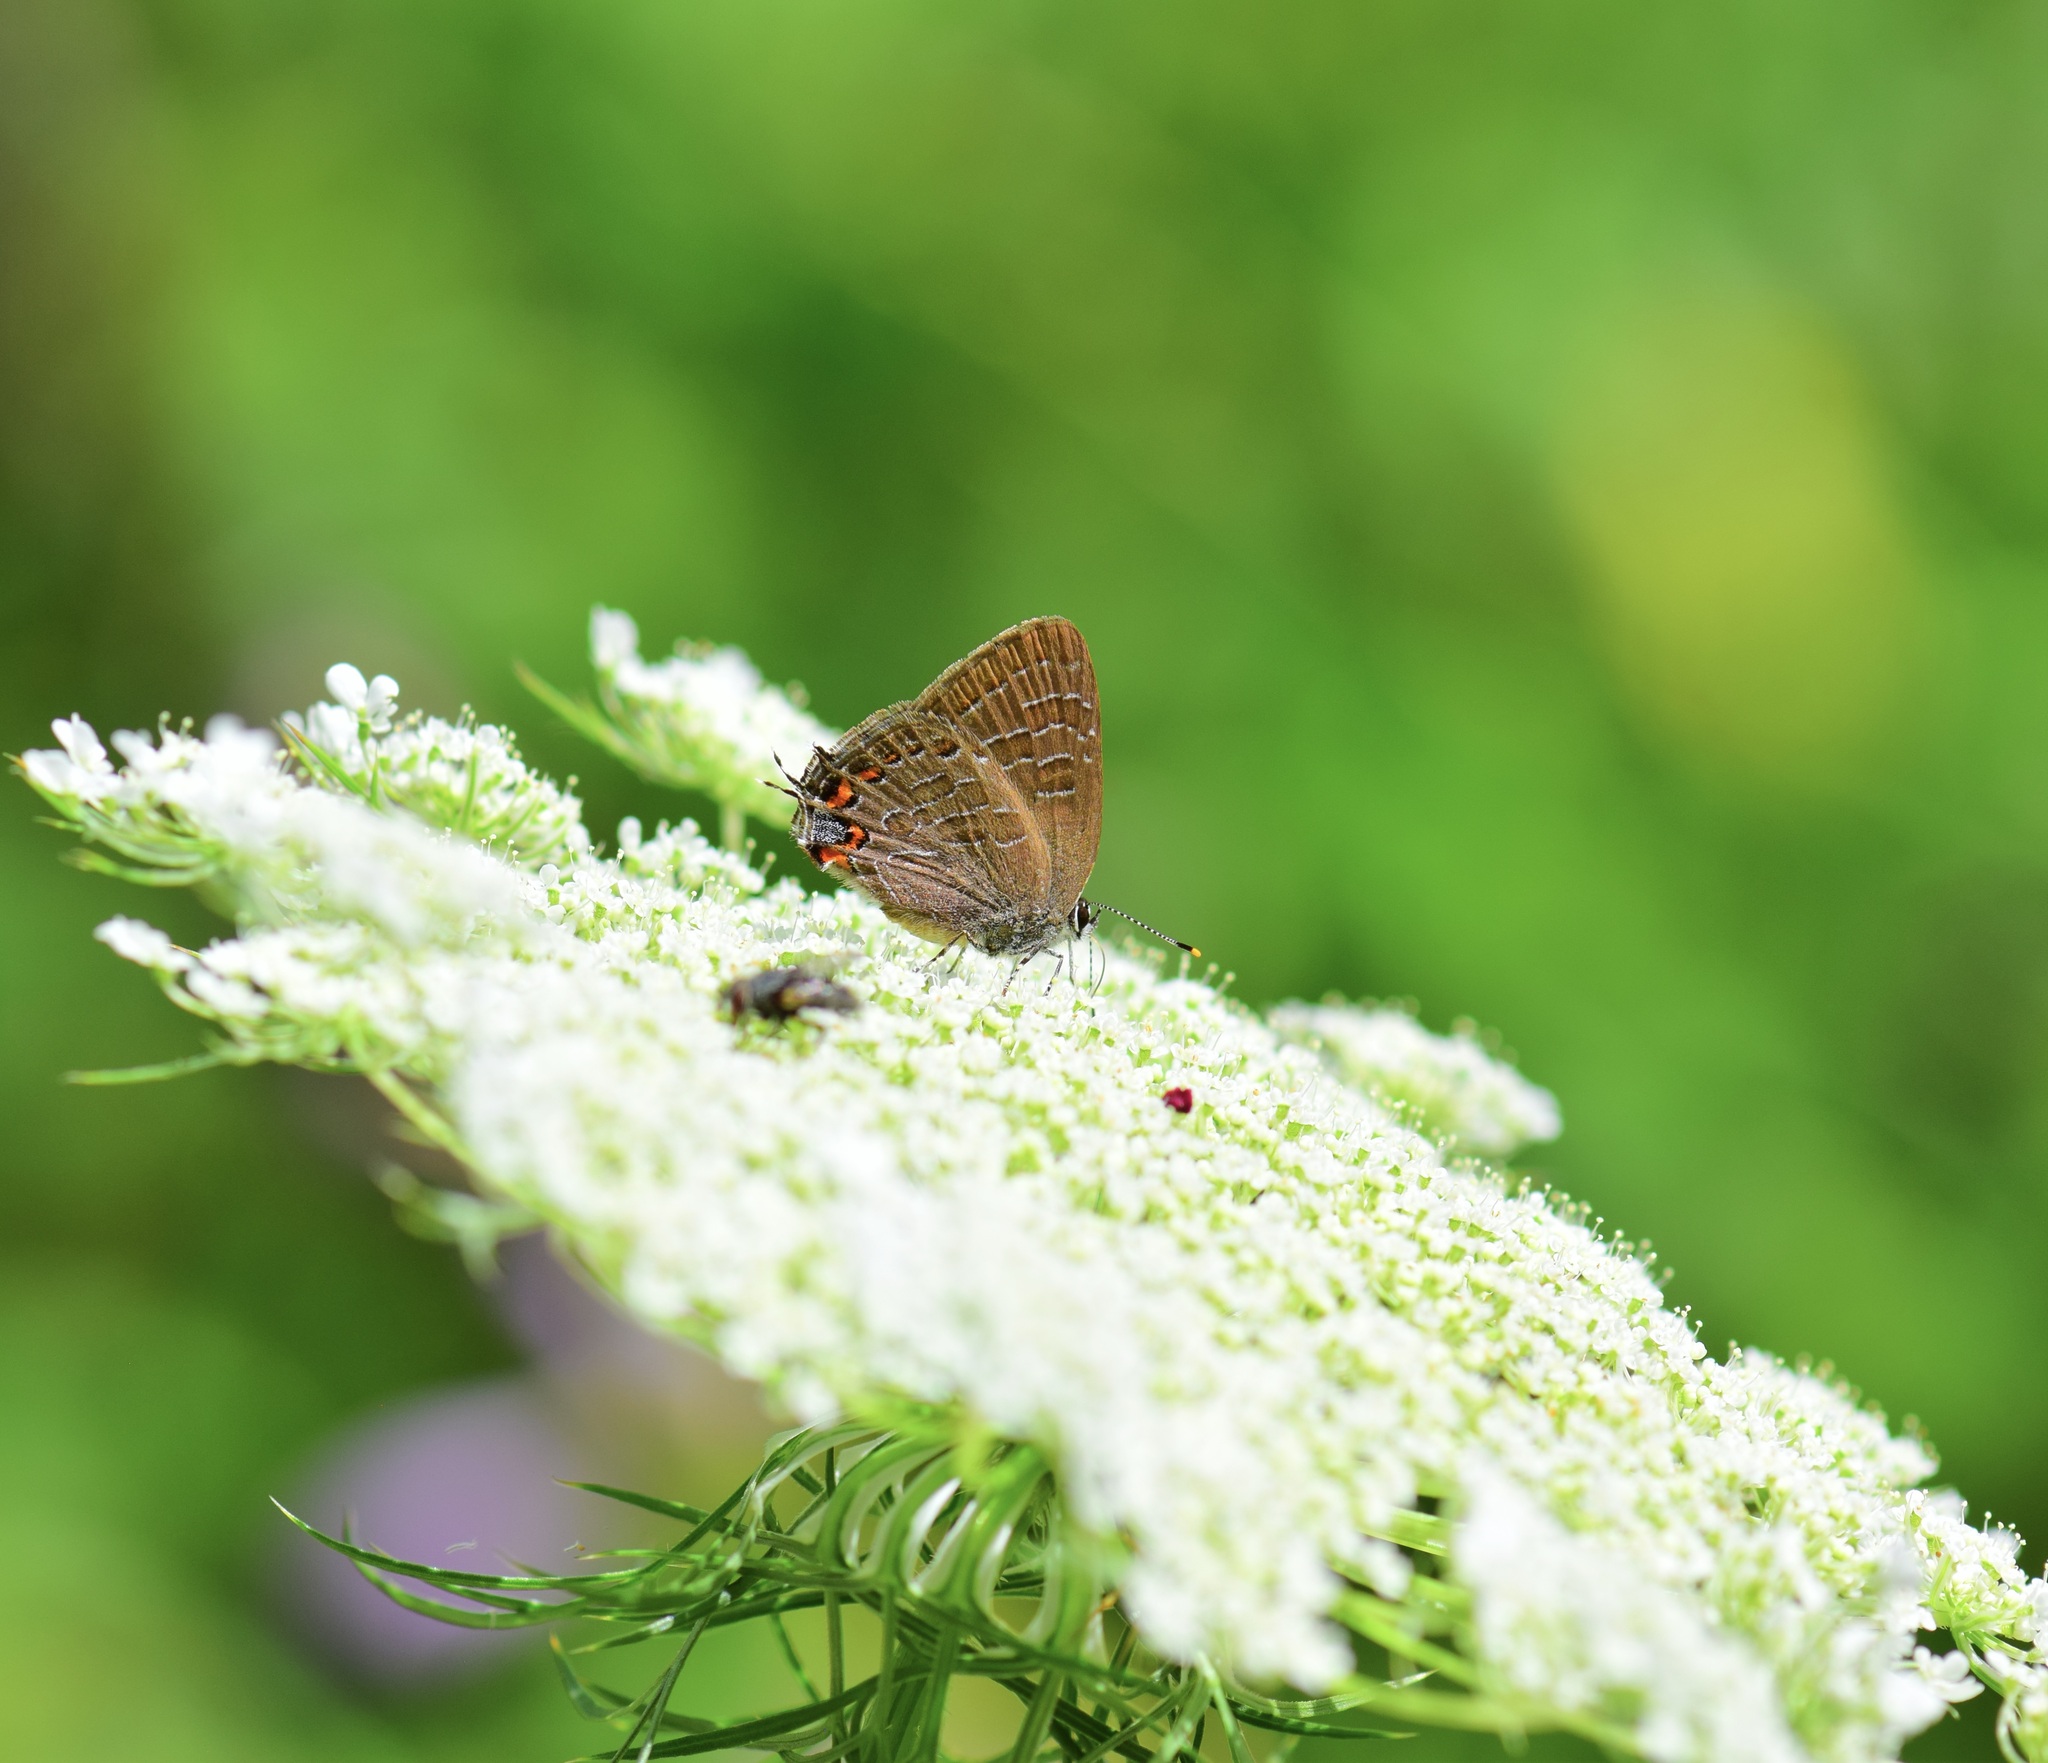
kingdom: Animalia
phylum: Arthropoda
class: Insecta
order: Lepidoptera
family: Lycaenidae
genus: Satyrium
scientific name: Satyrium liparops
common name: Striped hairstreak
